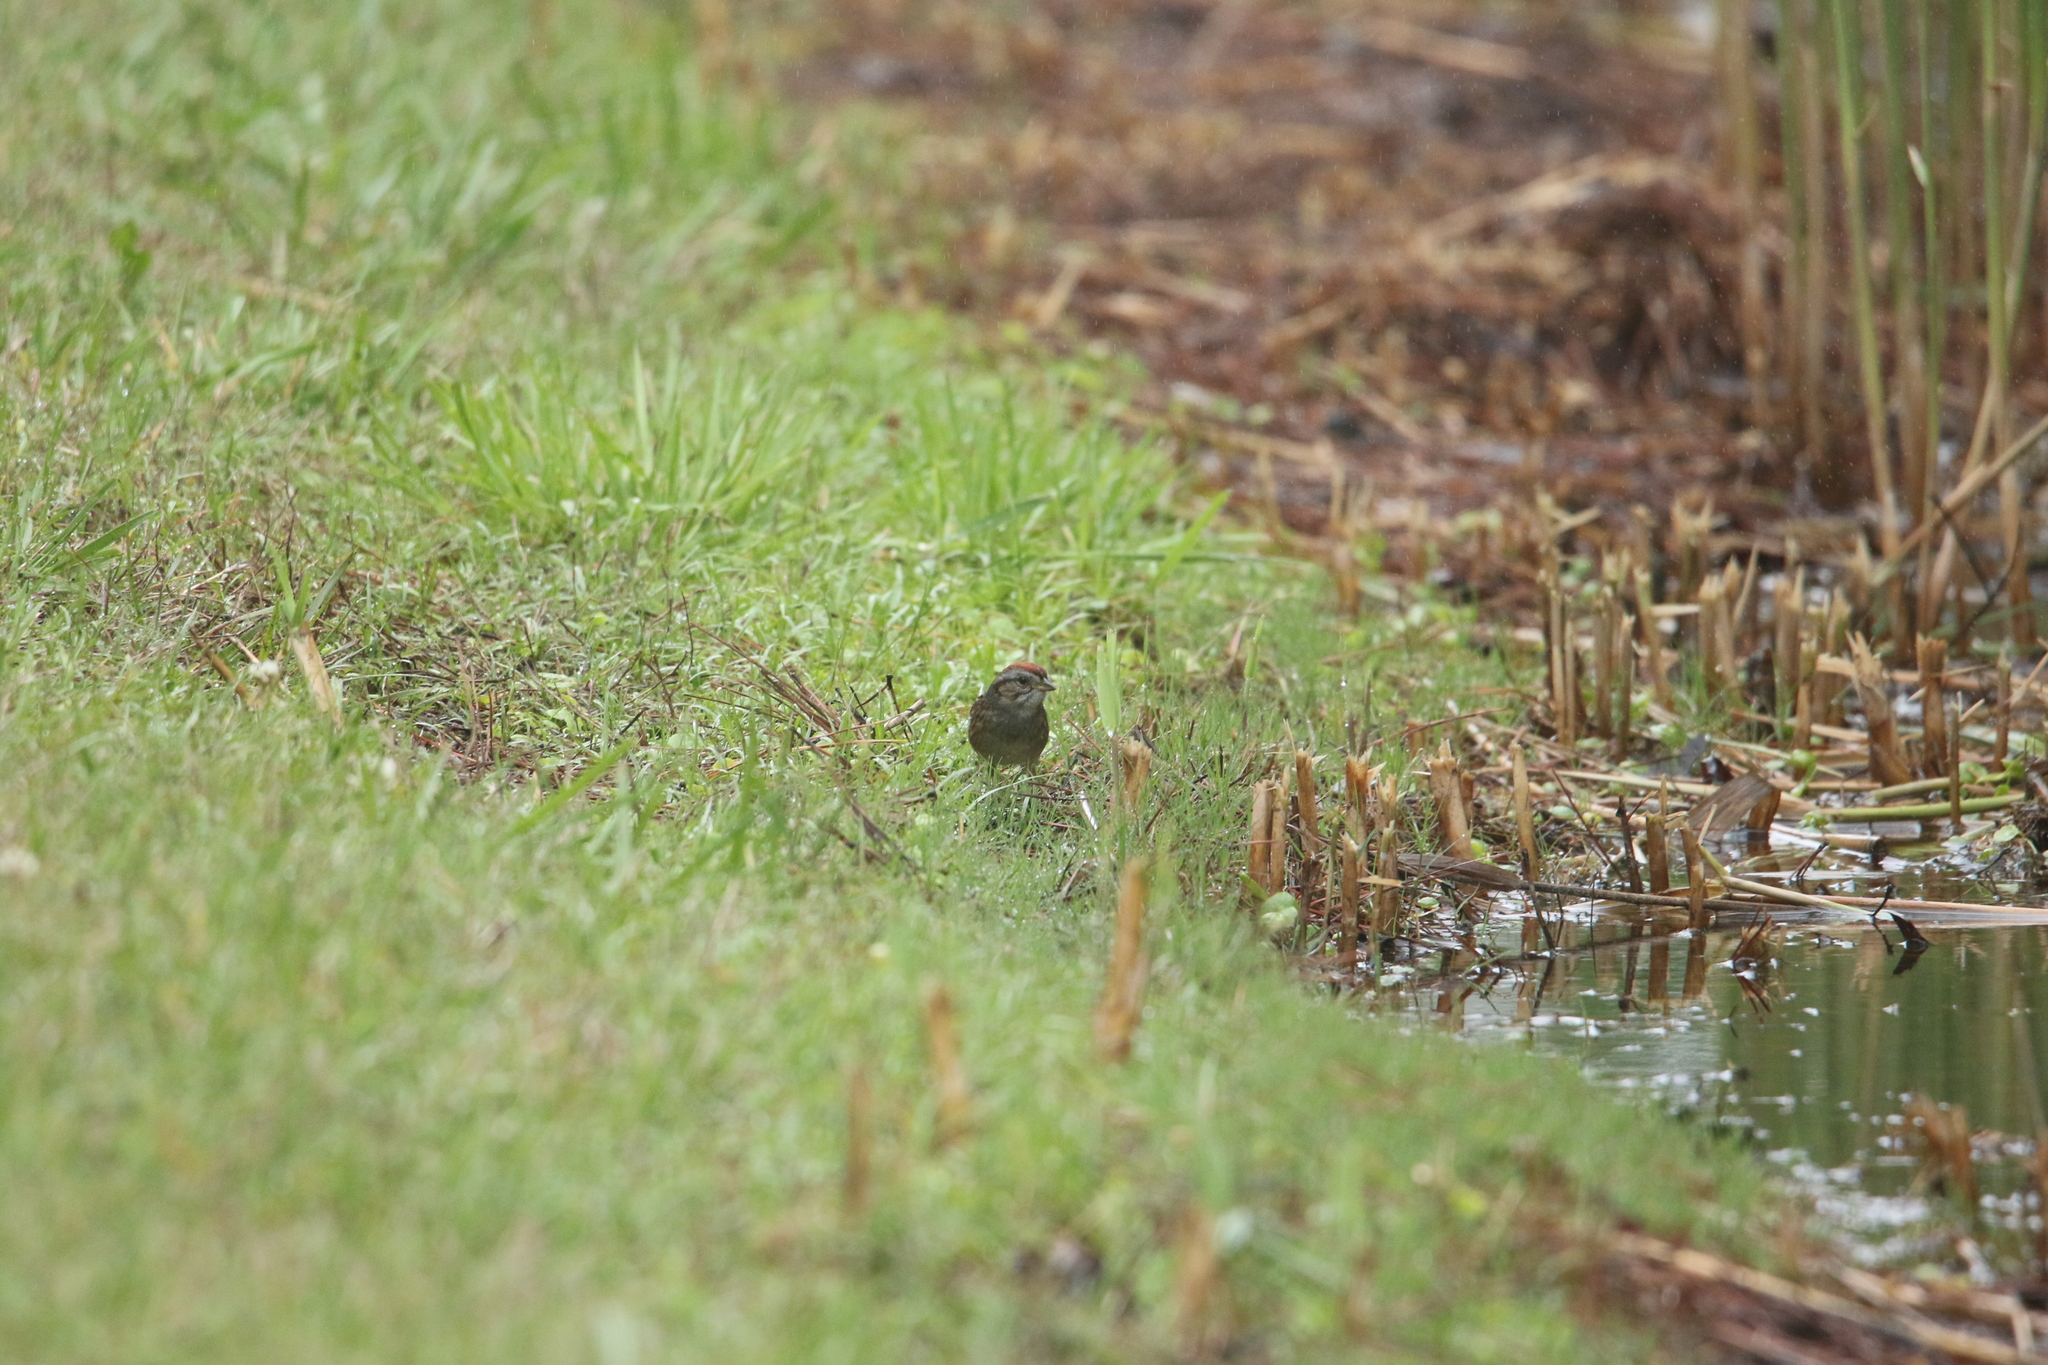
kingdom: Animalia
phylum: Chordata
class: Aves
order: Passeriformes
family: Passerellidae
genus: Melospiza
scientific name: Melospiza georgiana
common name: Swamp sparrow
